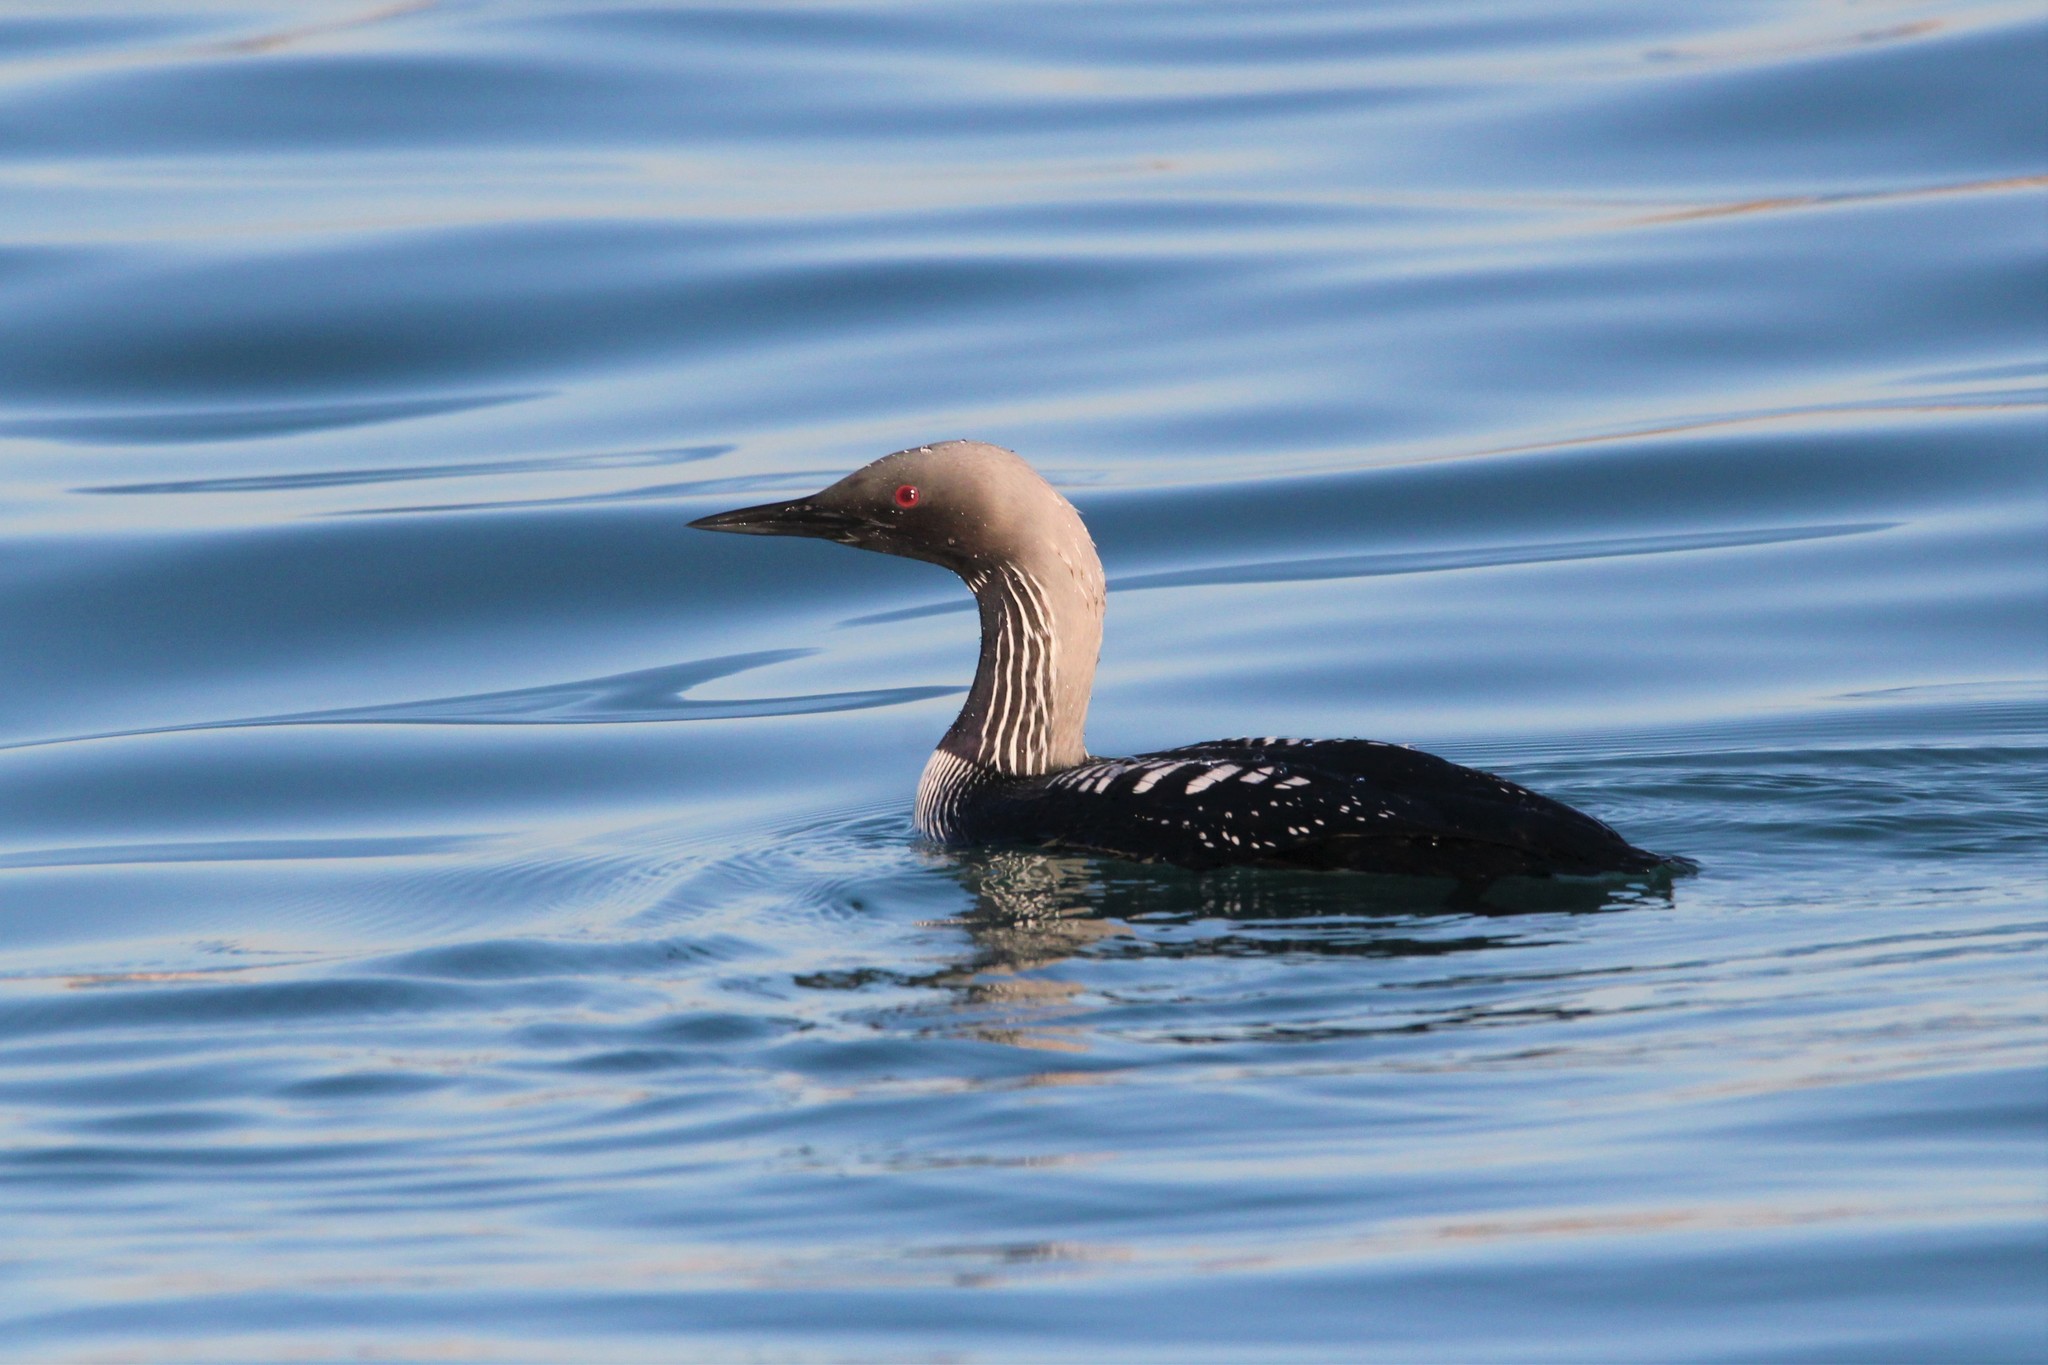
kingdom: Animalia
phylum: Chordata
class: Aves
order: Gaviiformes
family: Gaviidae
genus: Gavia
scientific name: Gavia pacifica
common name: Pacific loon
